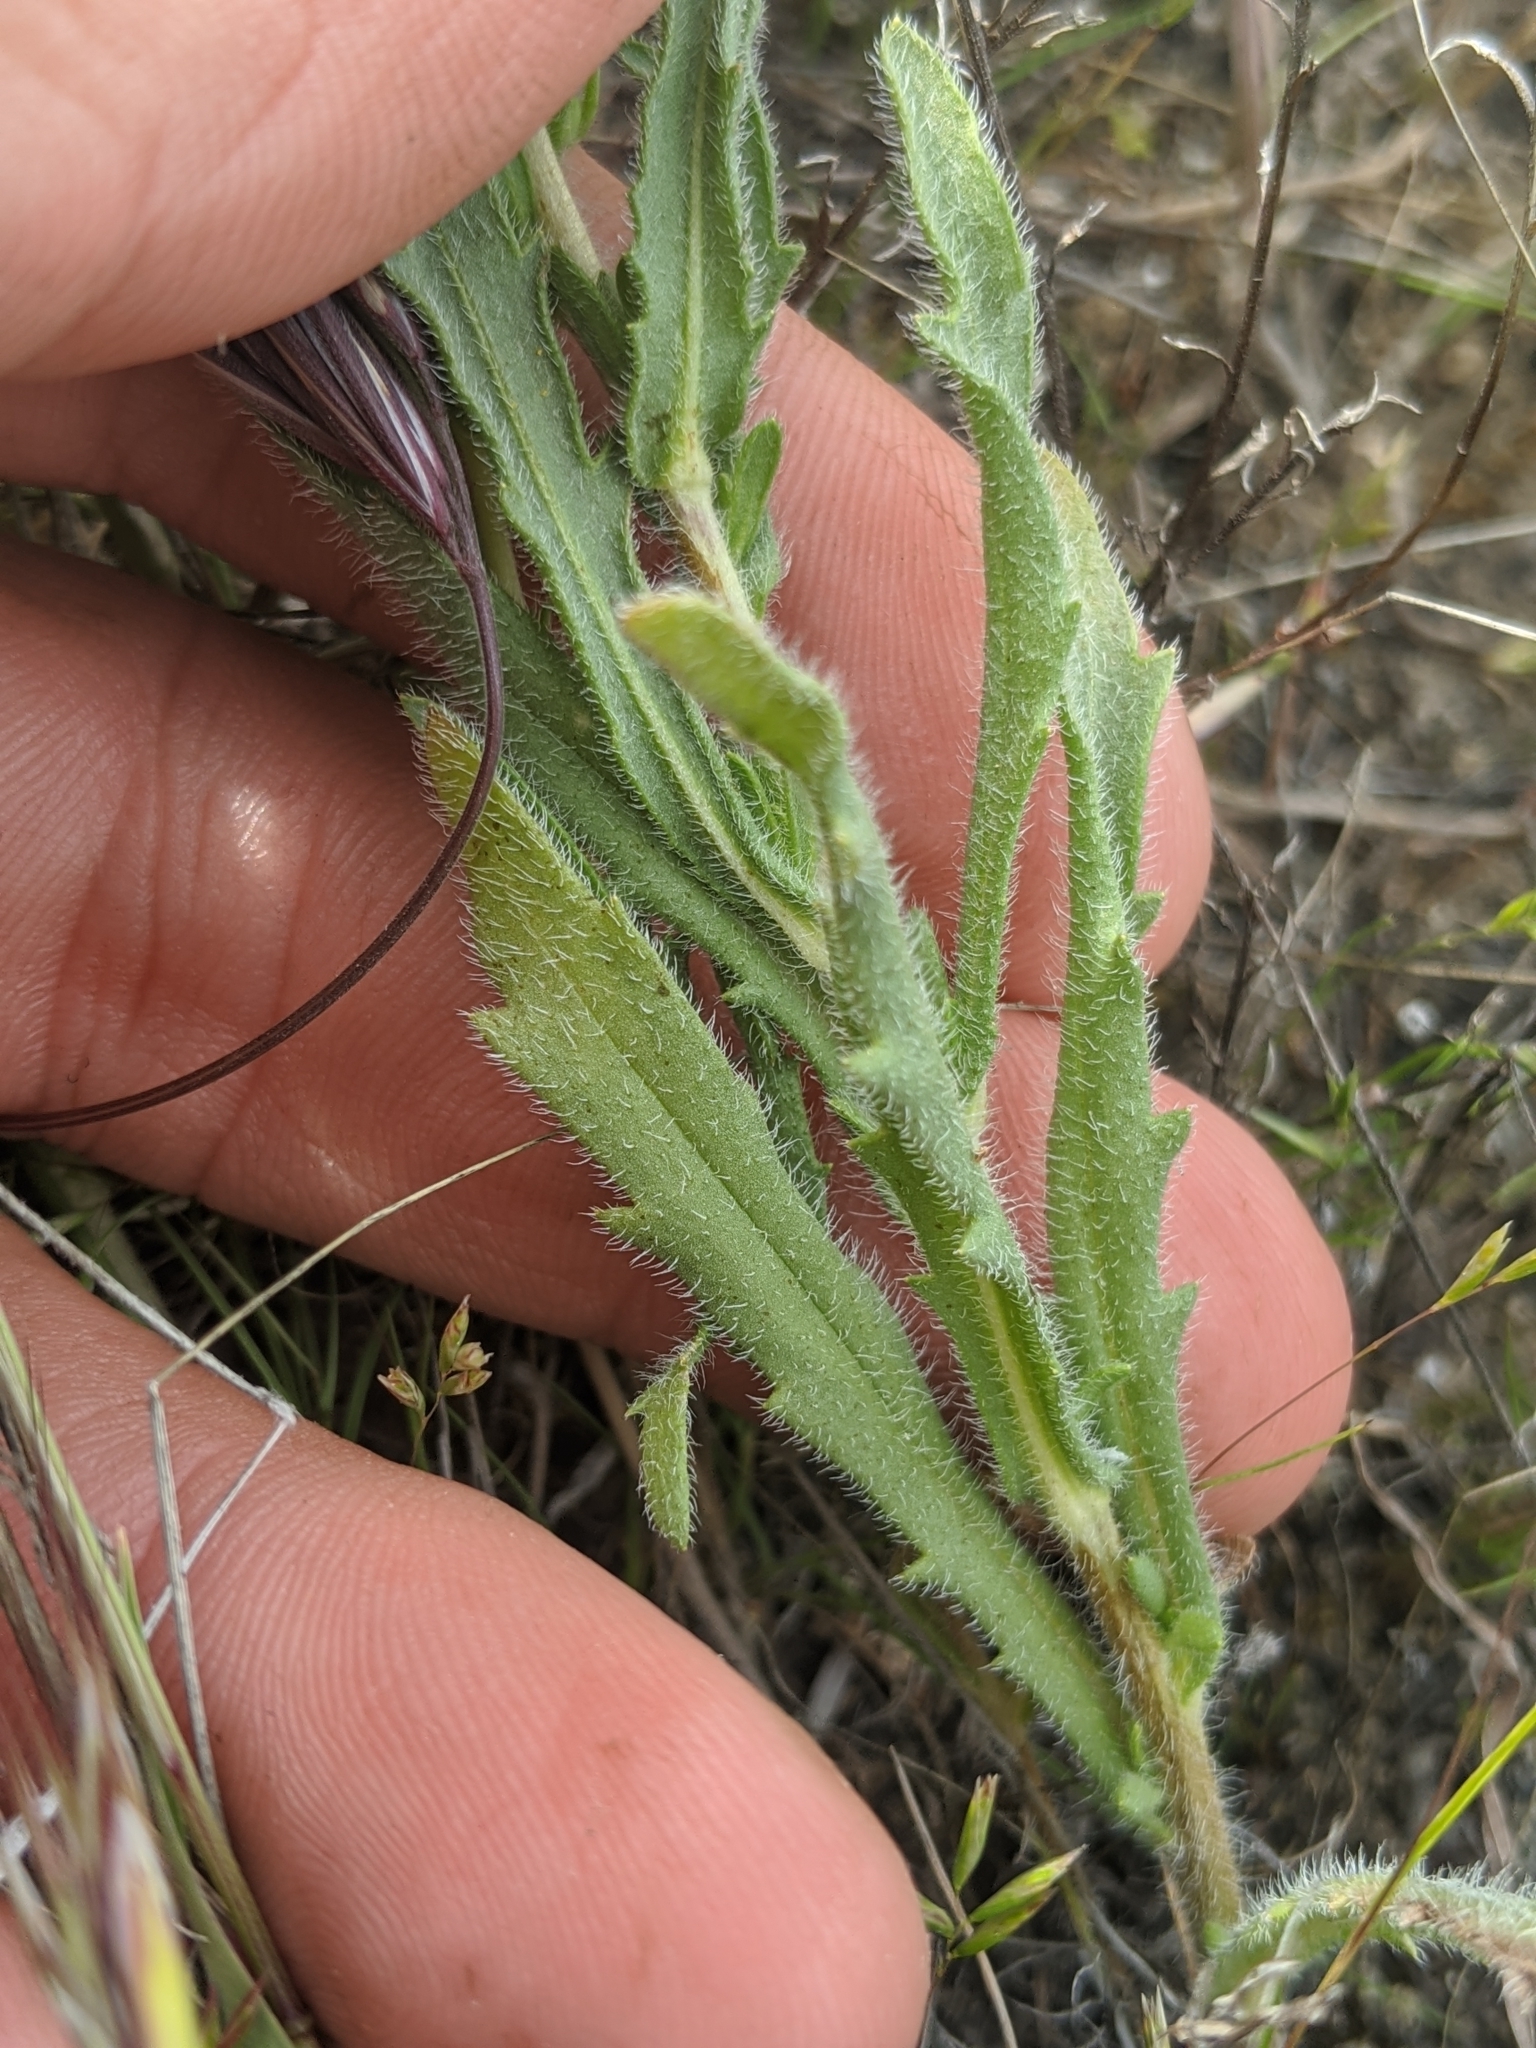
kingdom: Plantae
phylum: Tracheophyta
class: Magnoliopsida
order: Asterales
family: Asteraceae
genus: Deinandra
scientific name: Deinandra pallida
